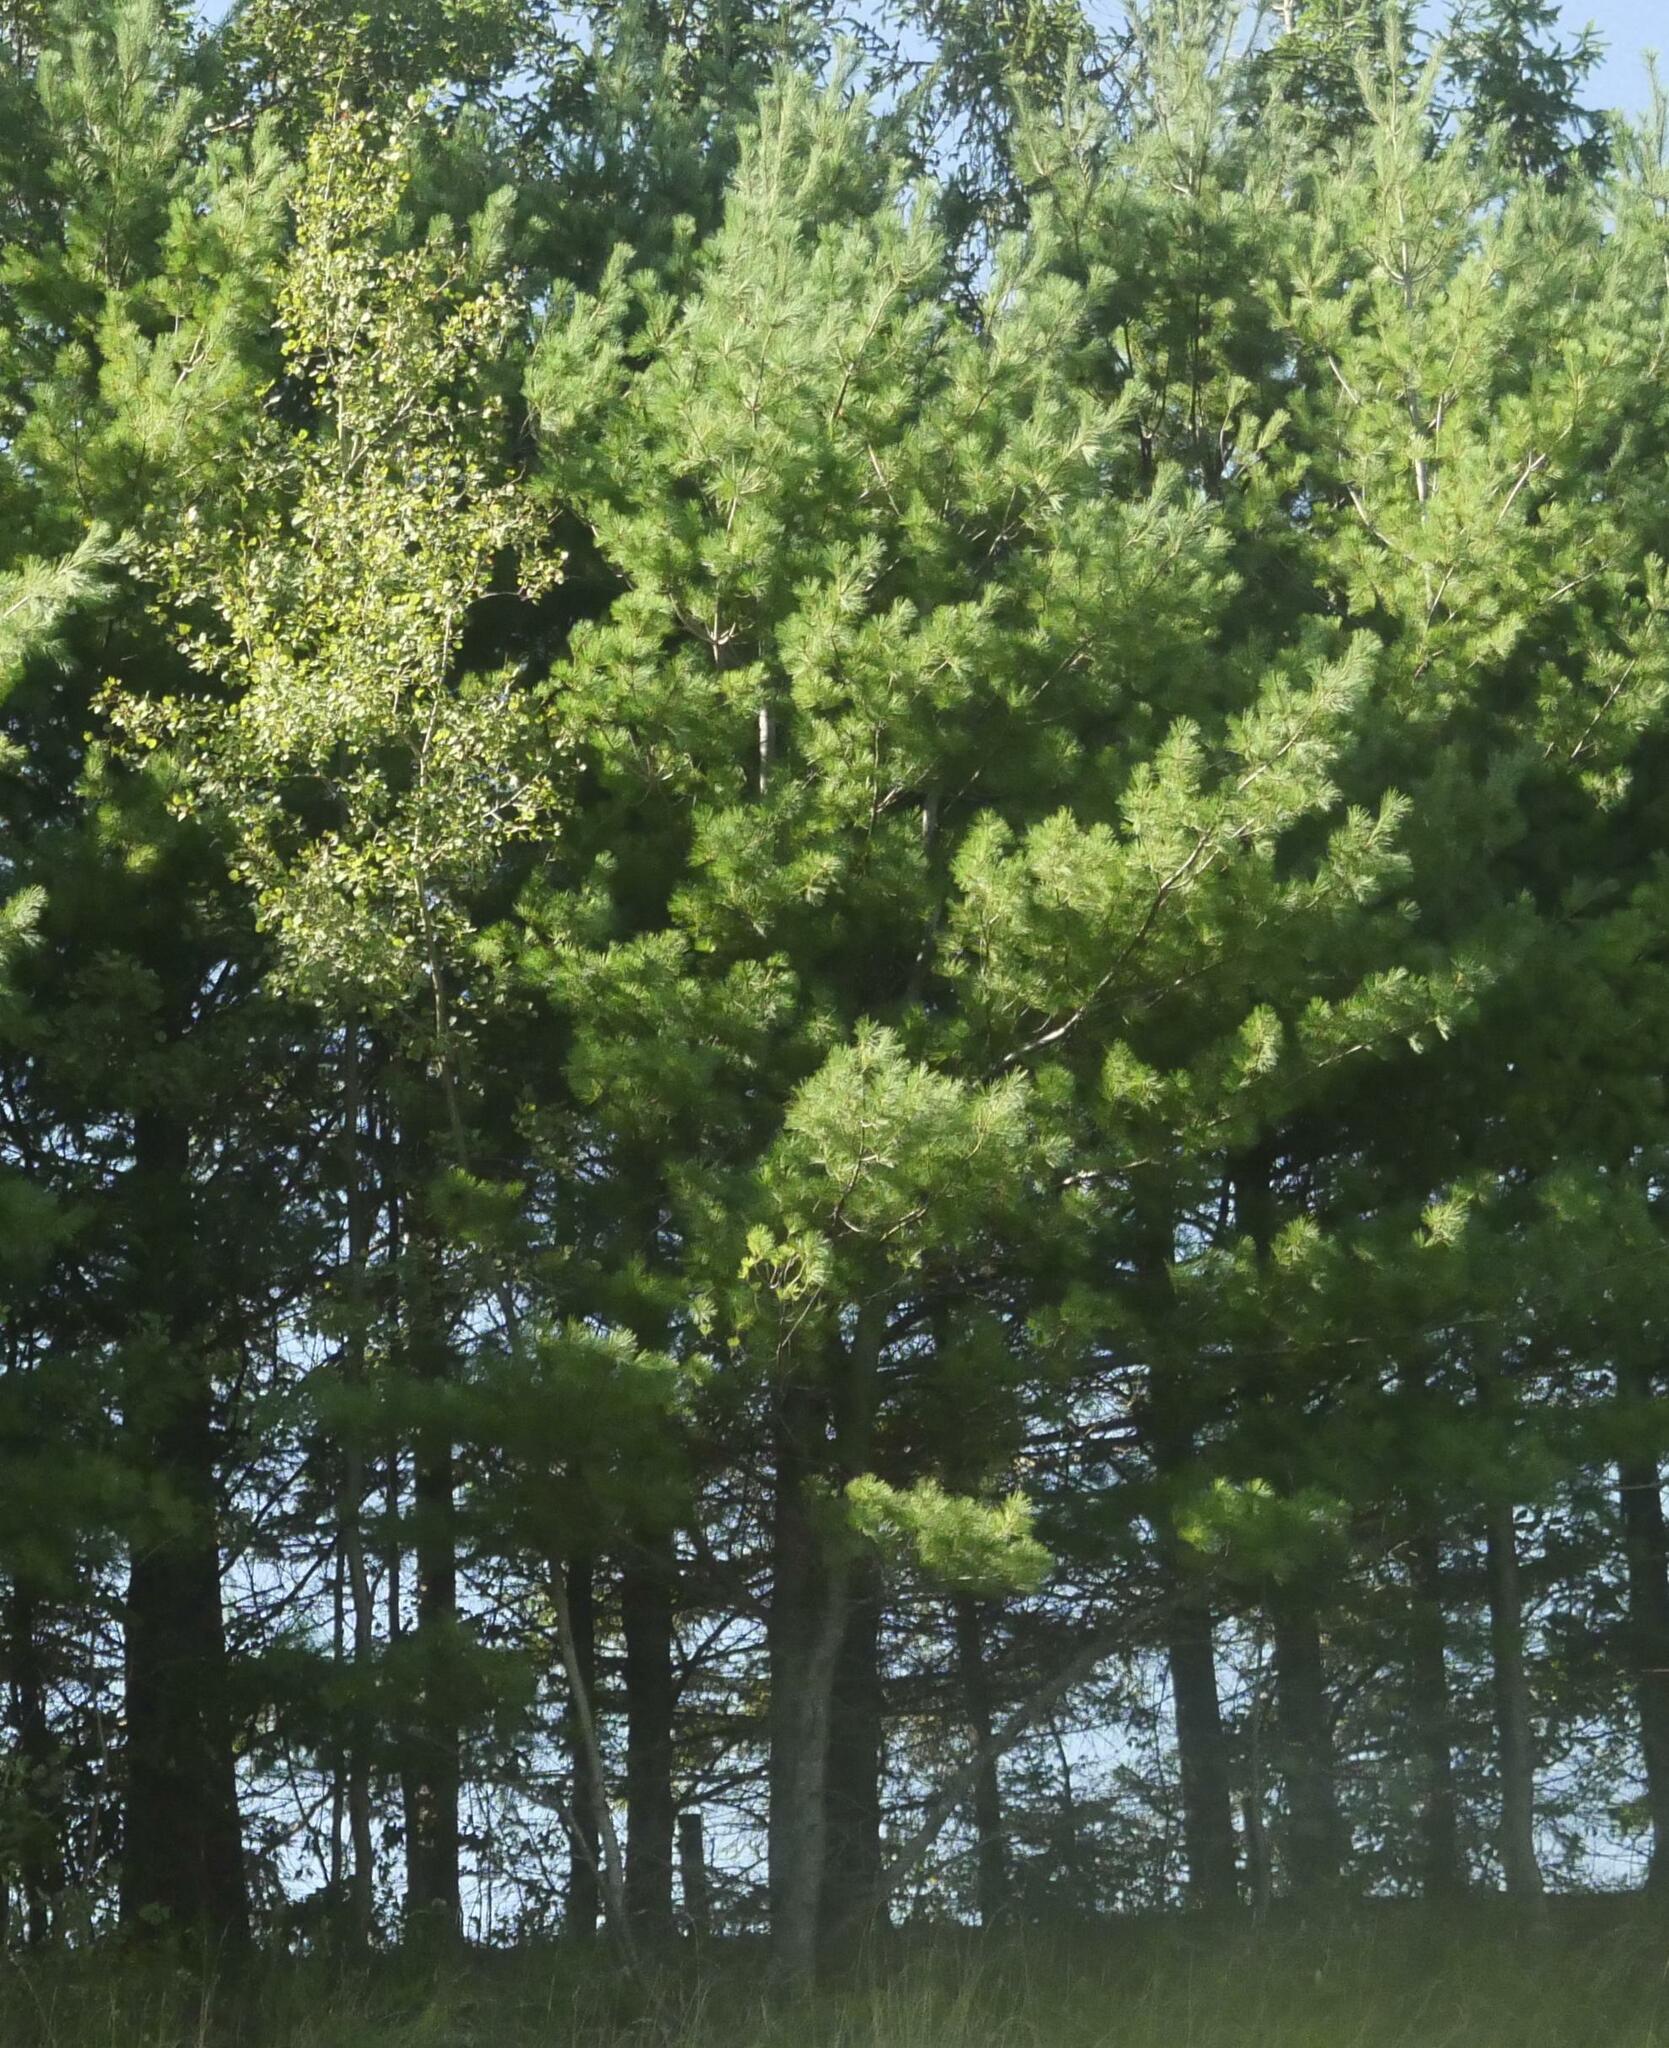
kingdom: Plantae
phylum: Tracheophyta
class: Pinopsida
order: Pinales
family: Pinaceae
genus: Pinus
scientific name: Pinus strobus
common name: Weymouth pine
